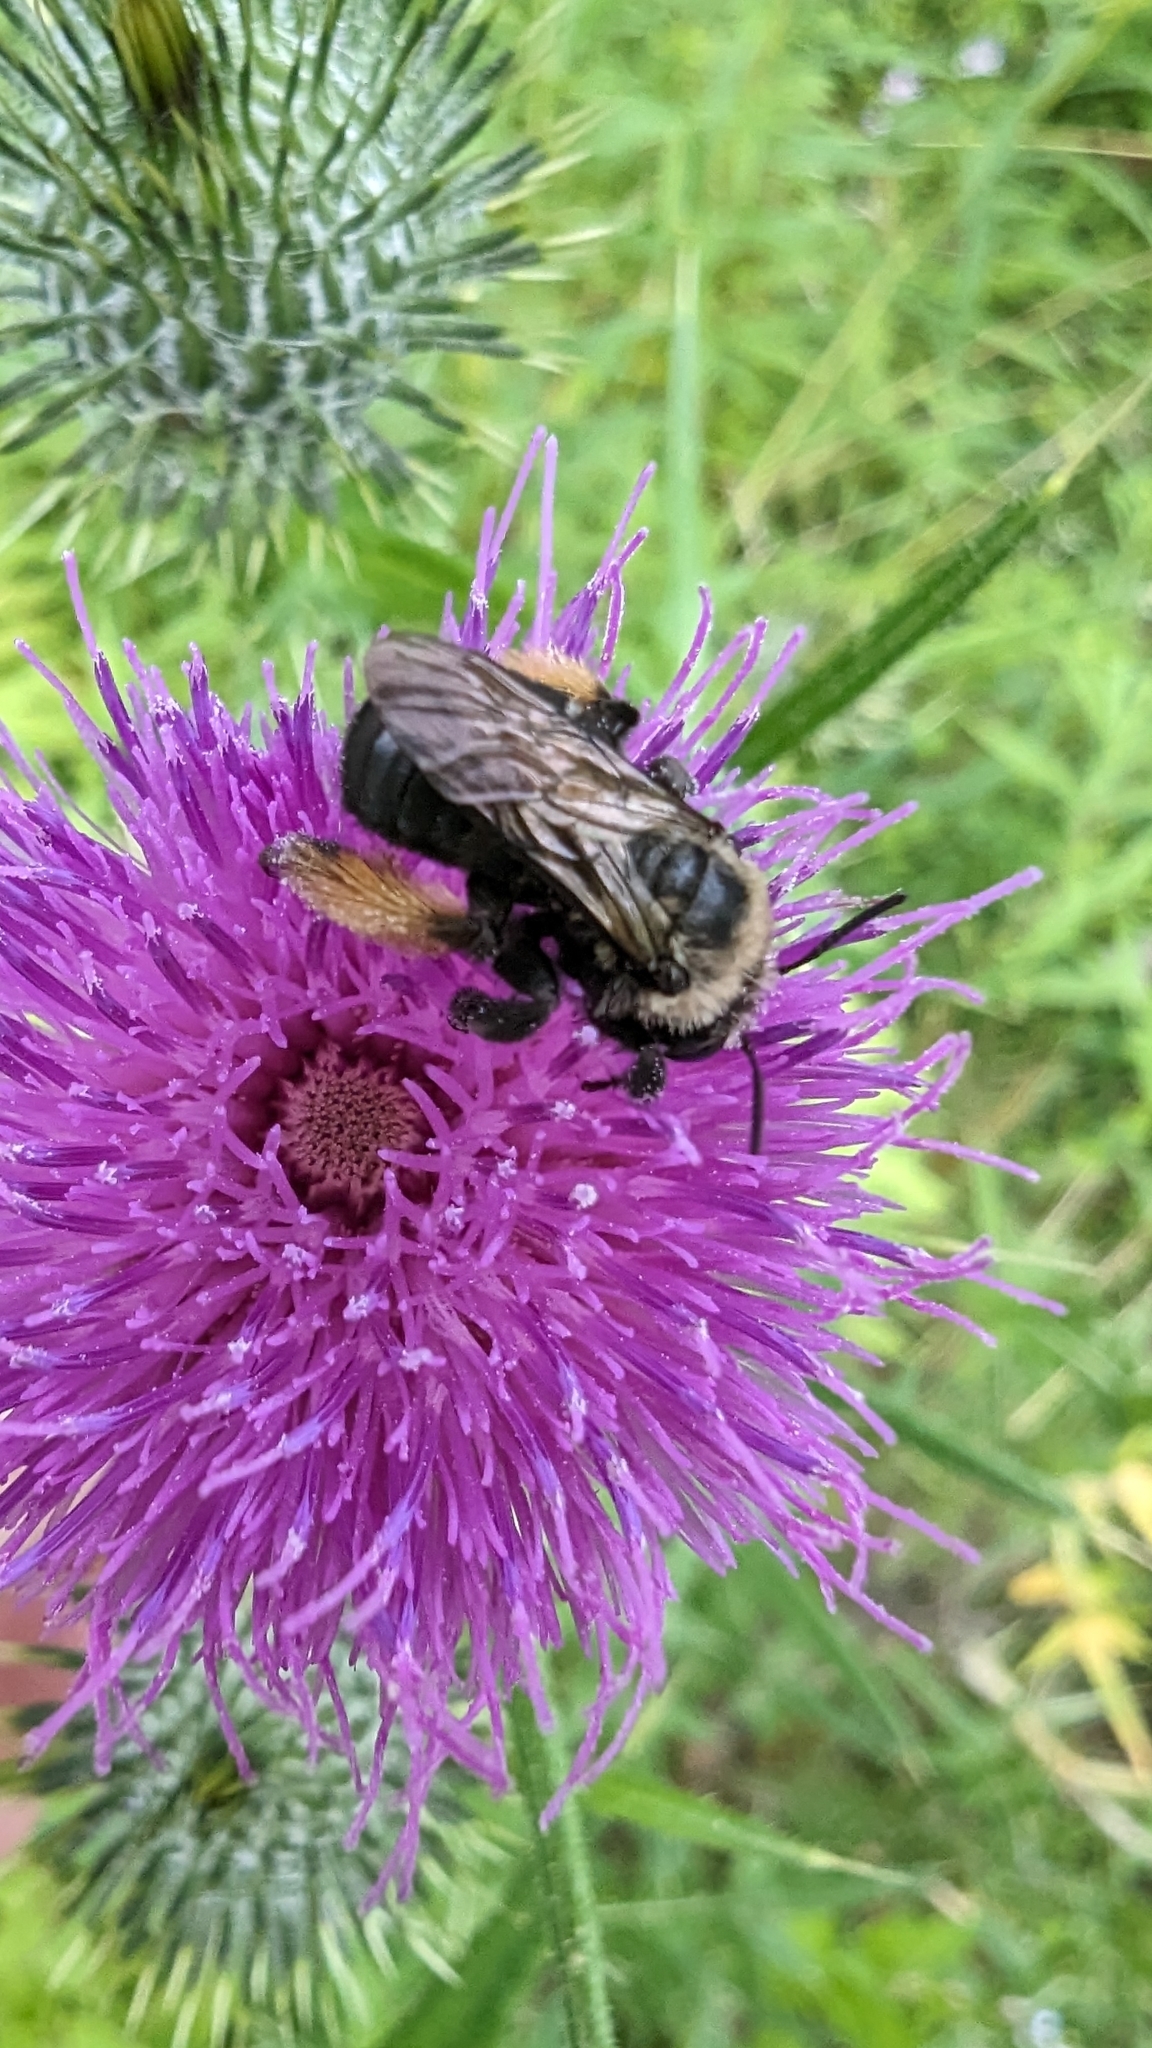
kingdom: Animalia
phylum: Arthropoda
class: Insecta
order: Hymenoptera
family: Apidae
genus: Melissodes
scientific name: Melissodes desponsus
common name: Thistle long-horned bee
